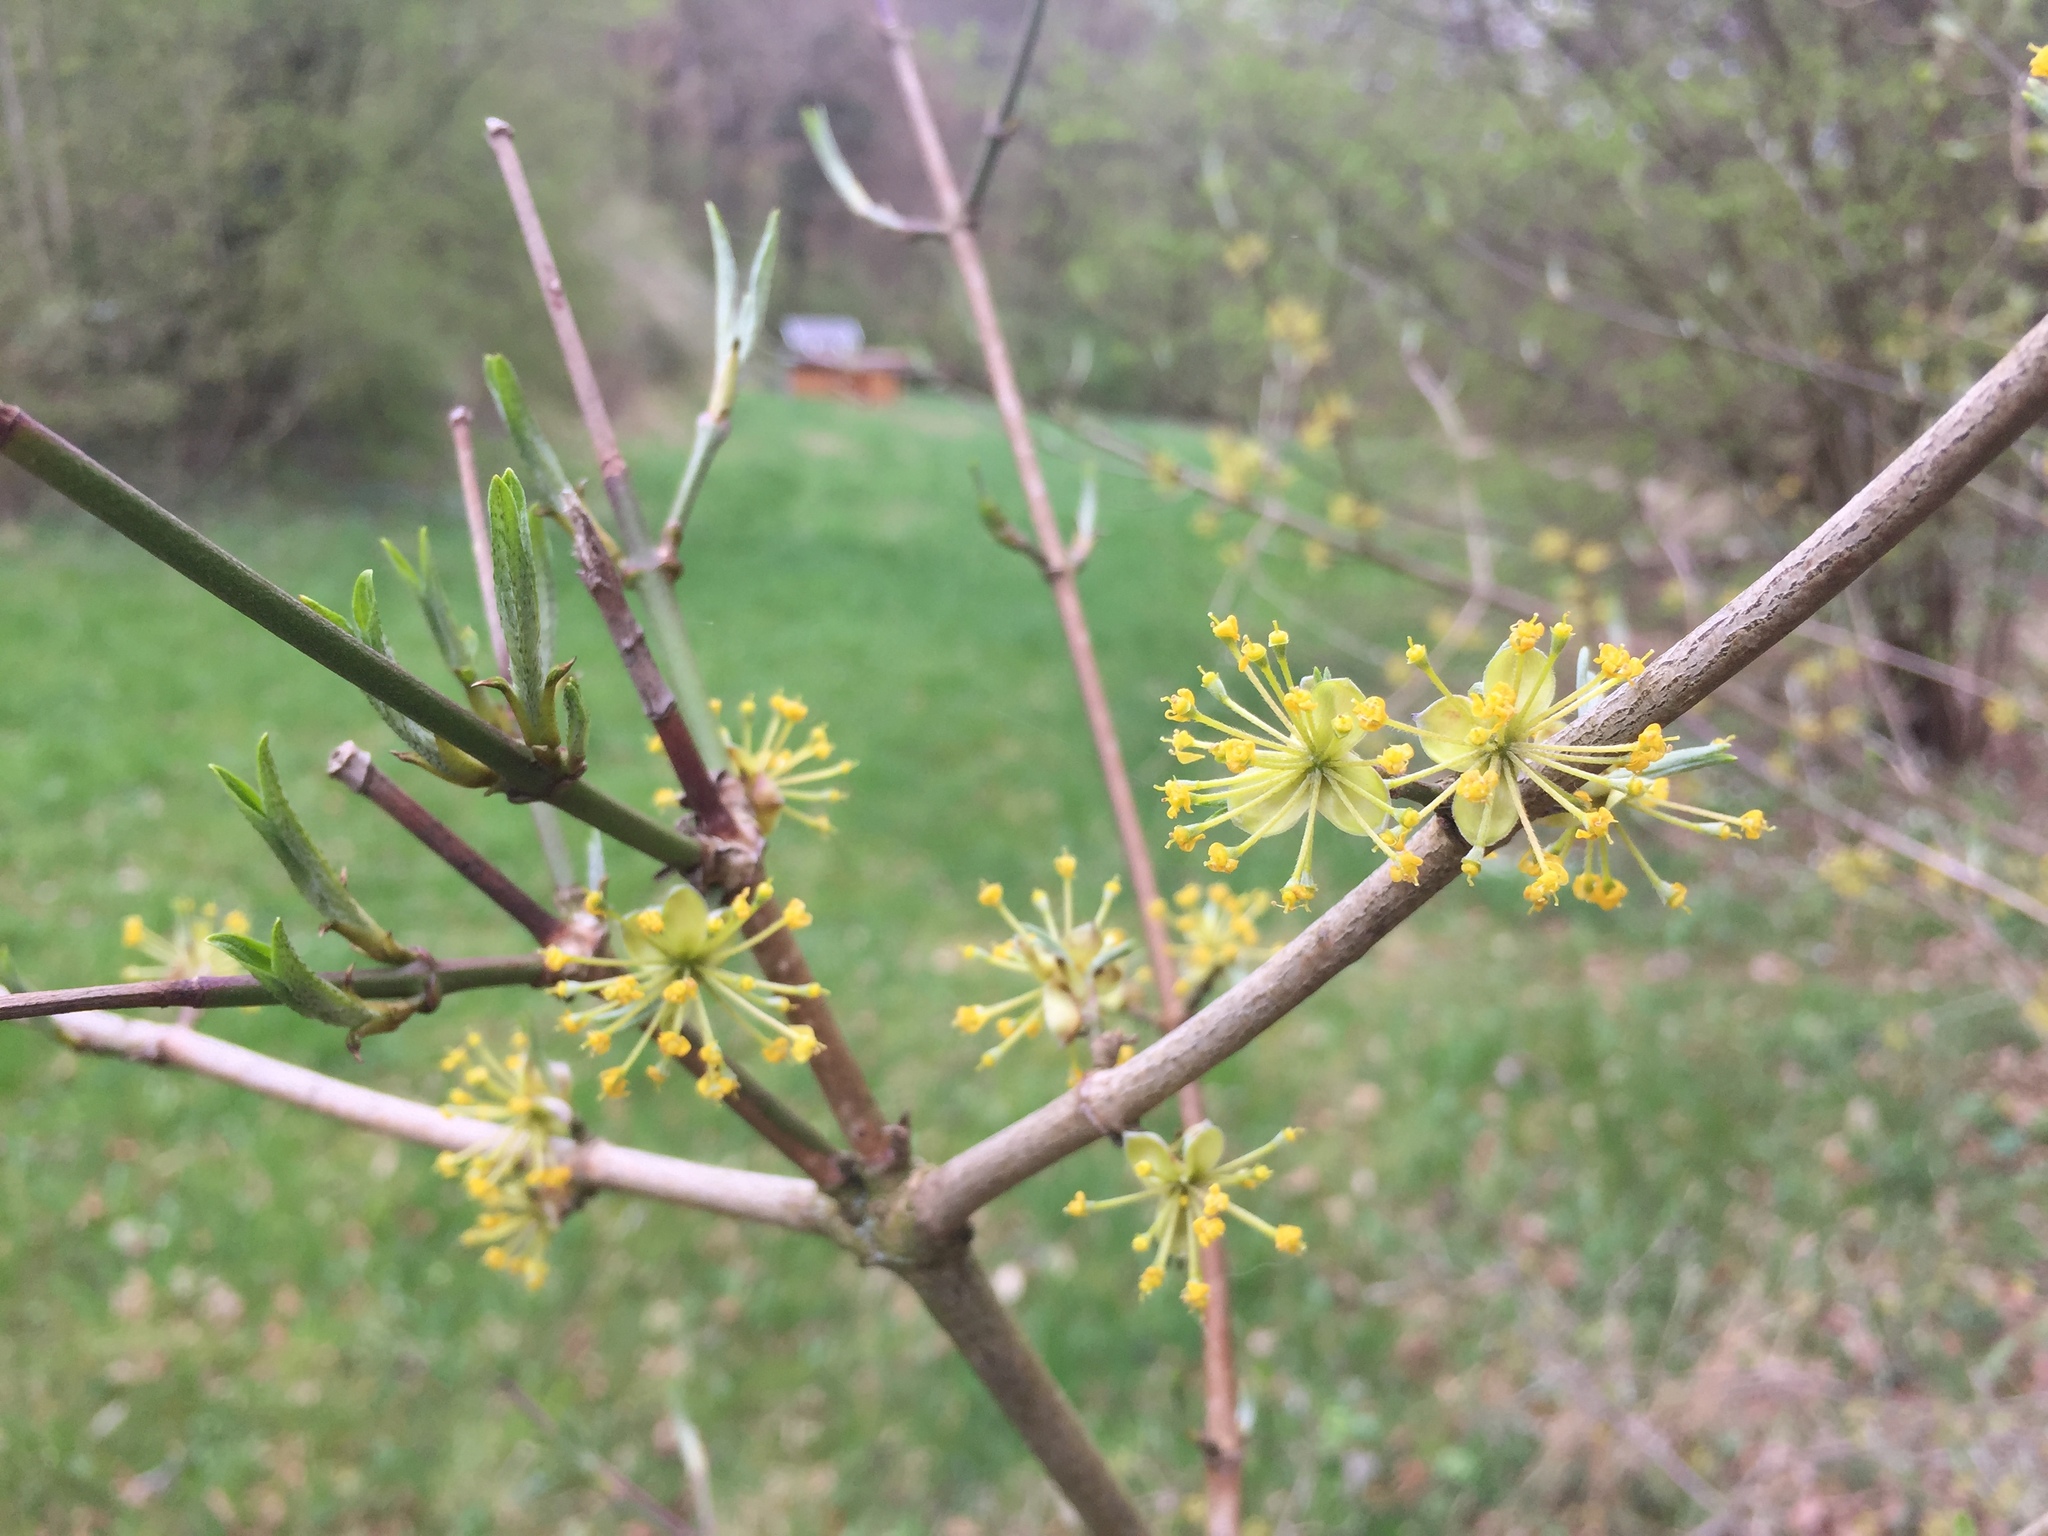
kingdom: Plantae
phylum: Tracheophyta
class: Magnoliopsida
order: Cornales
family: Cornaceae
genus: Cornus
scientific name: Cornus mas
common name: Cornelian-cherry
